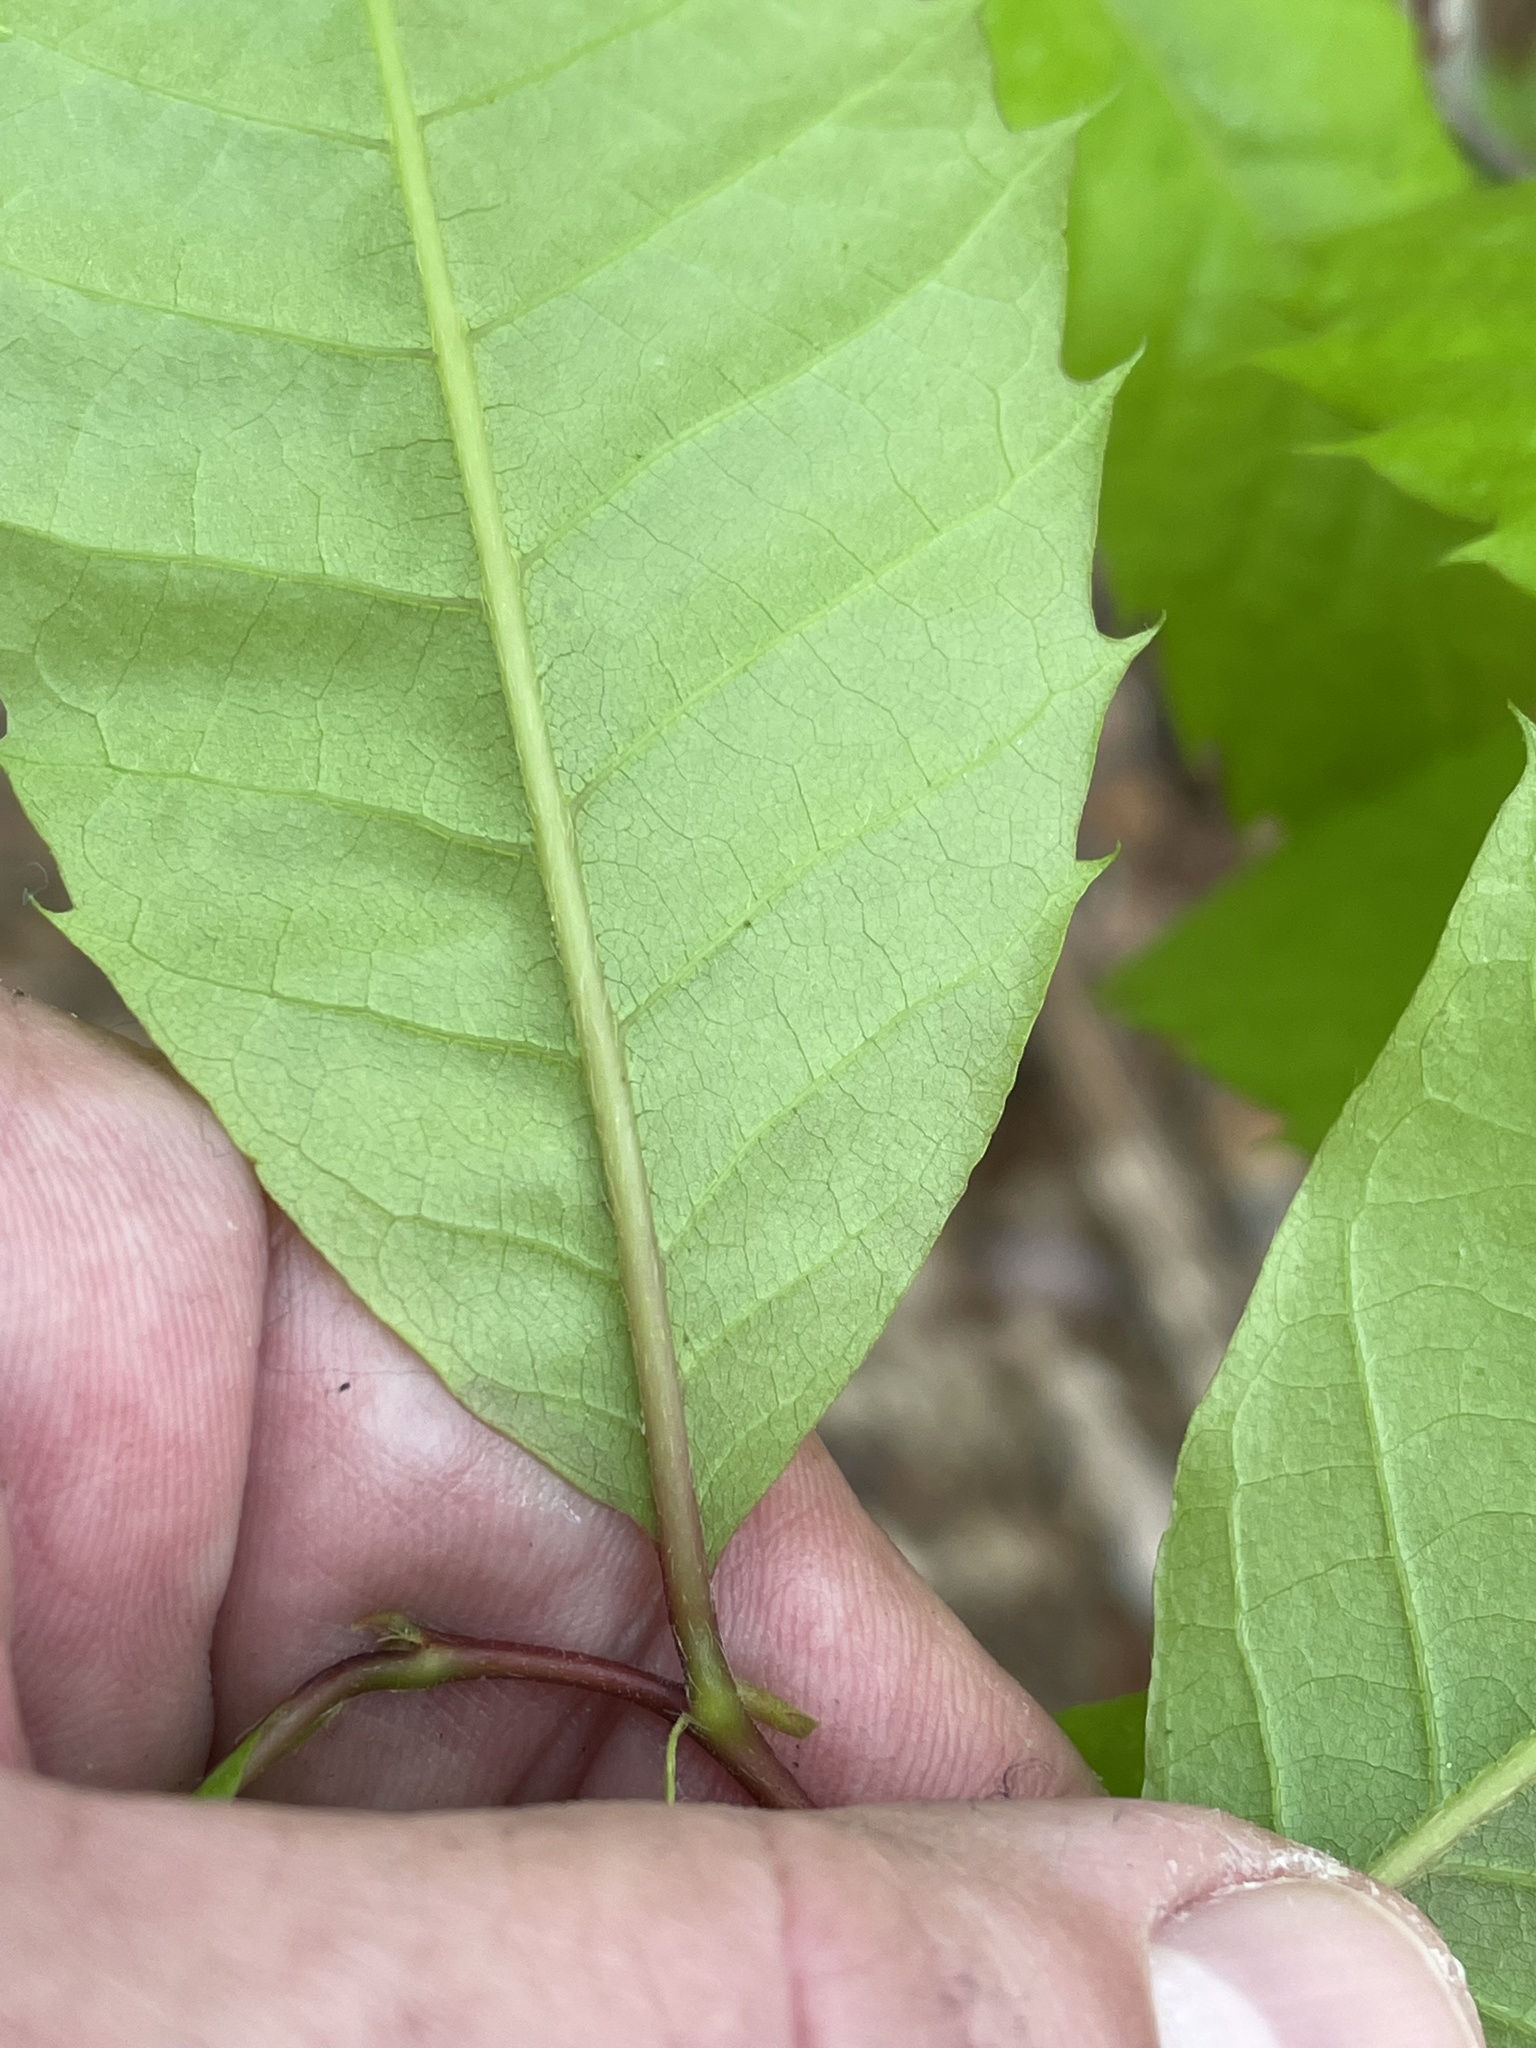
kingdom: Plantae
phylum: Tracheophyta
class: Magnoliopsida
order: Fagales
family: Fagaceae
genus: Castanea
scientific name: Castanea dentata
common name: American chestnut
